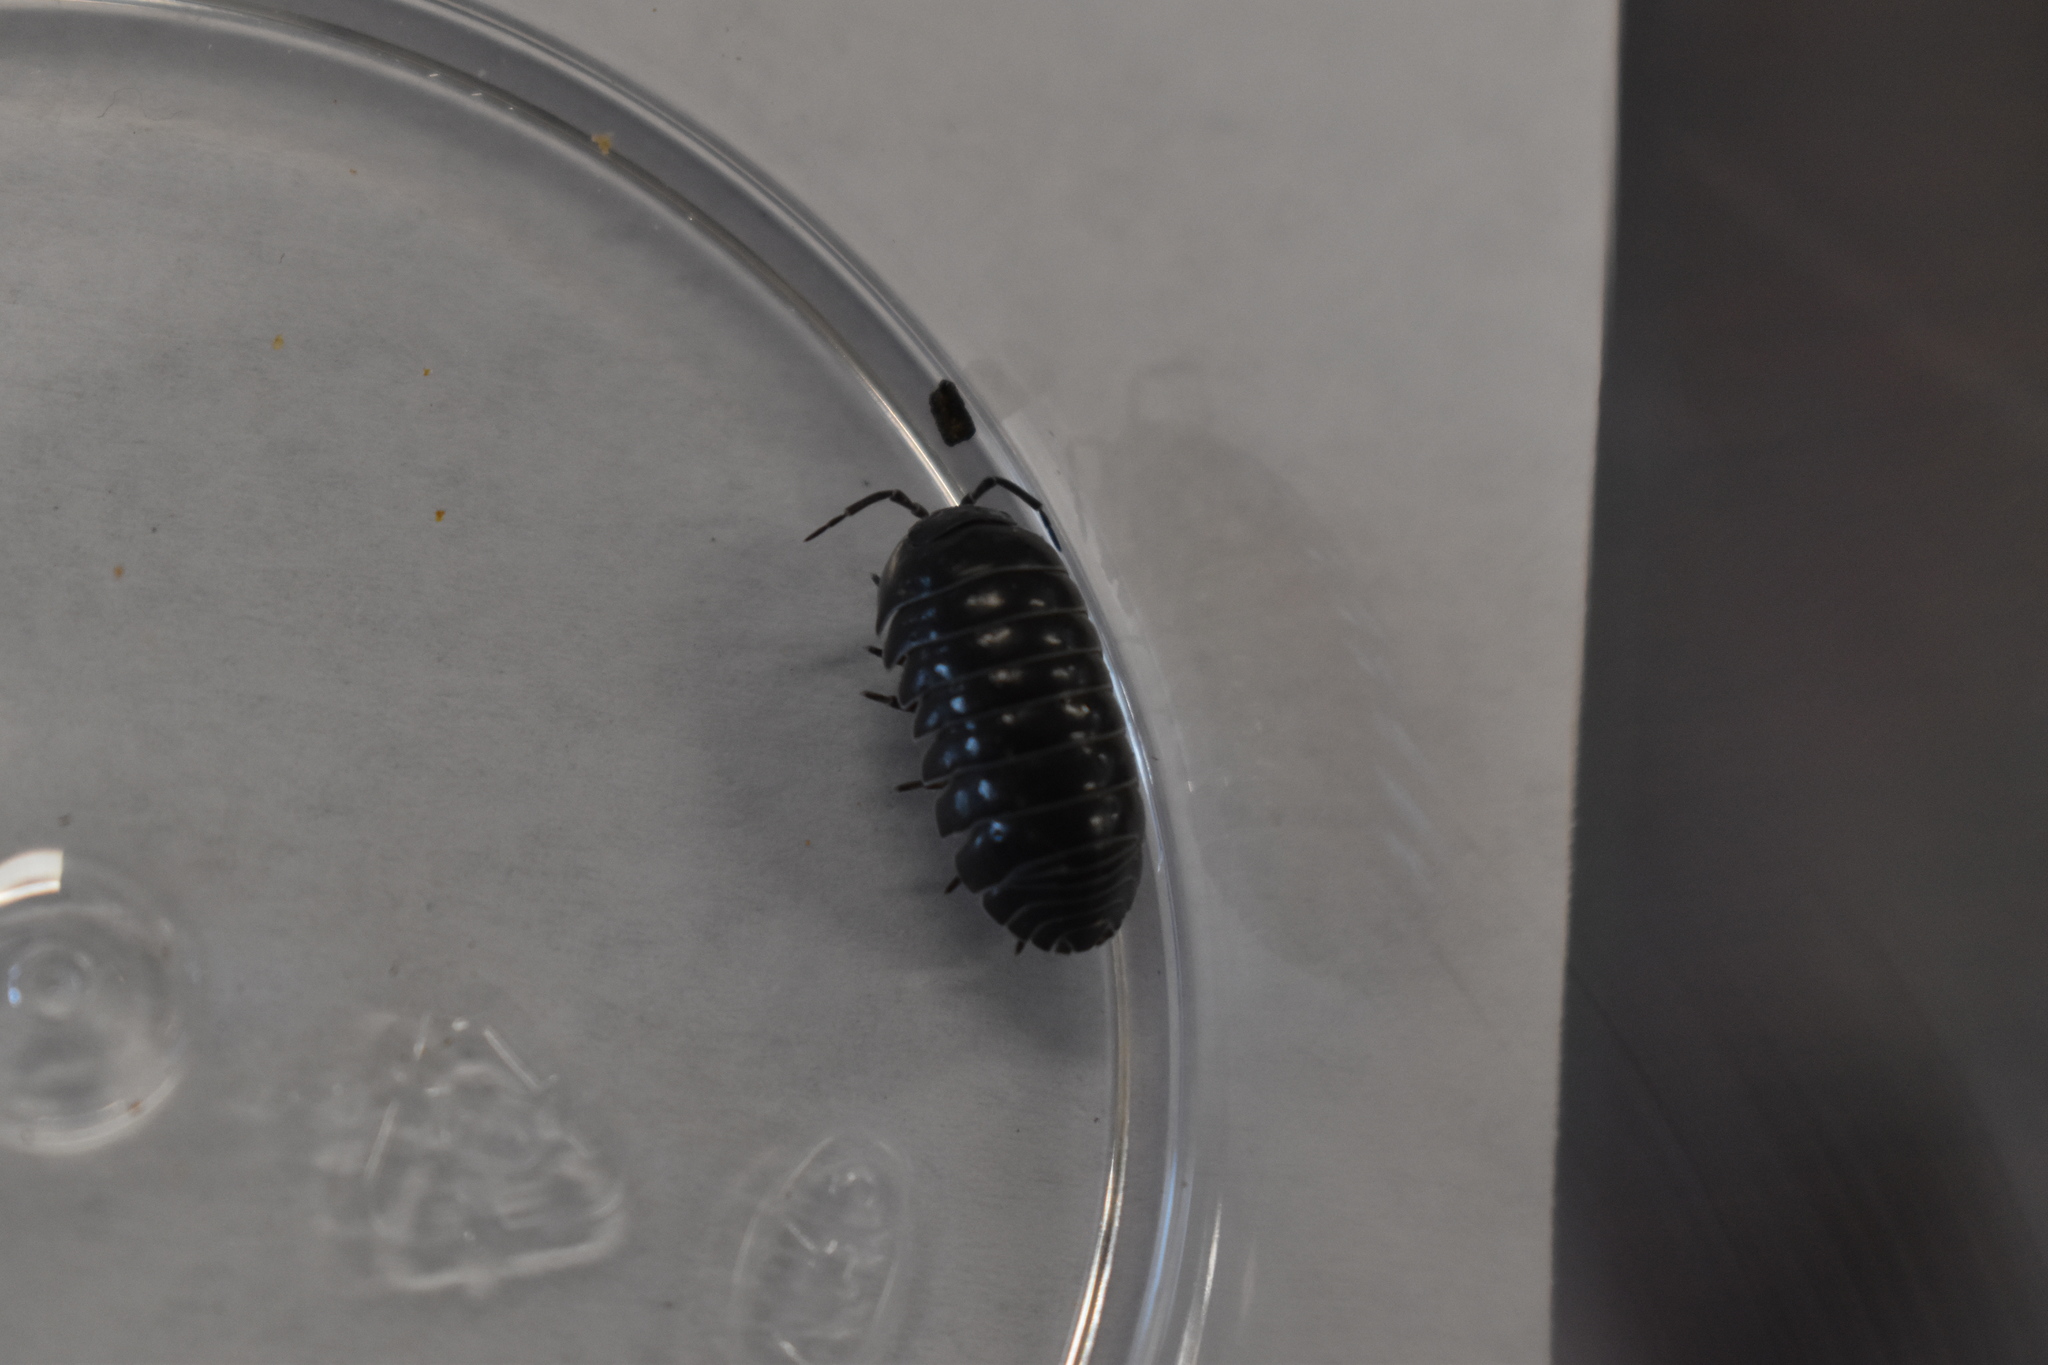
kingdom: Animalia
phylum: Arthropoda
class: Malacostraca
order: Isopoda
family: Armadillidiidae
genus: Armadillidium
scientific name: Armadillidium vulgare
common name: Common pill woodlouse
